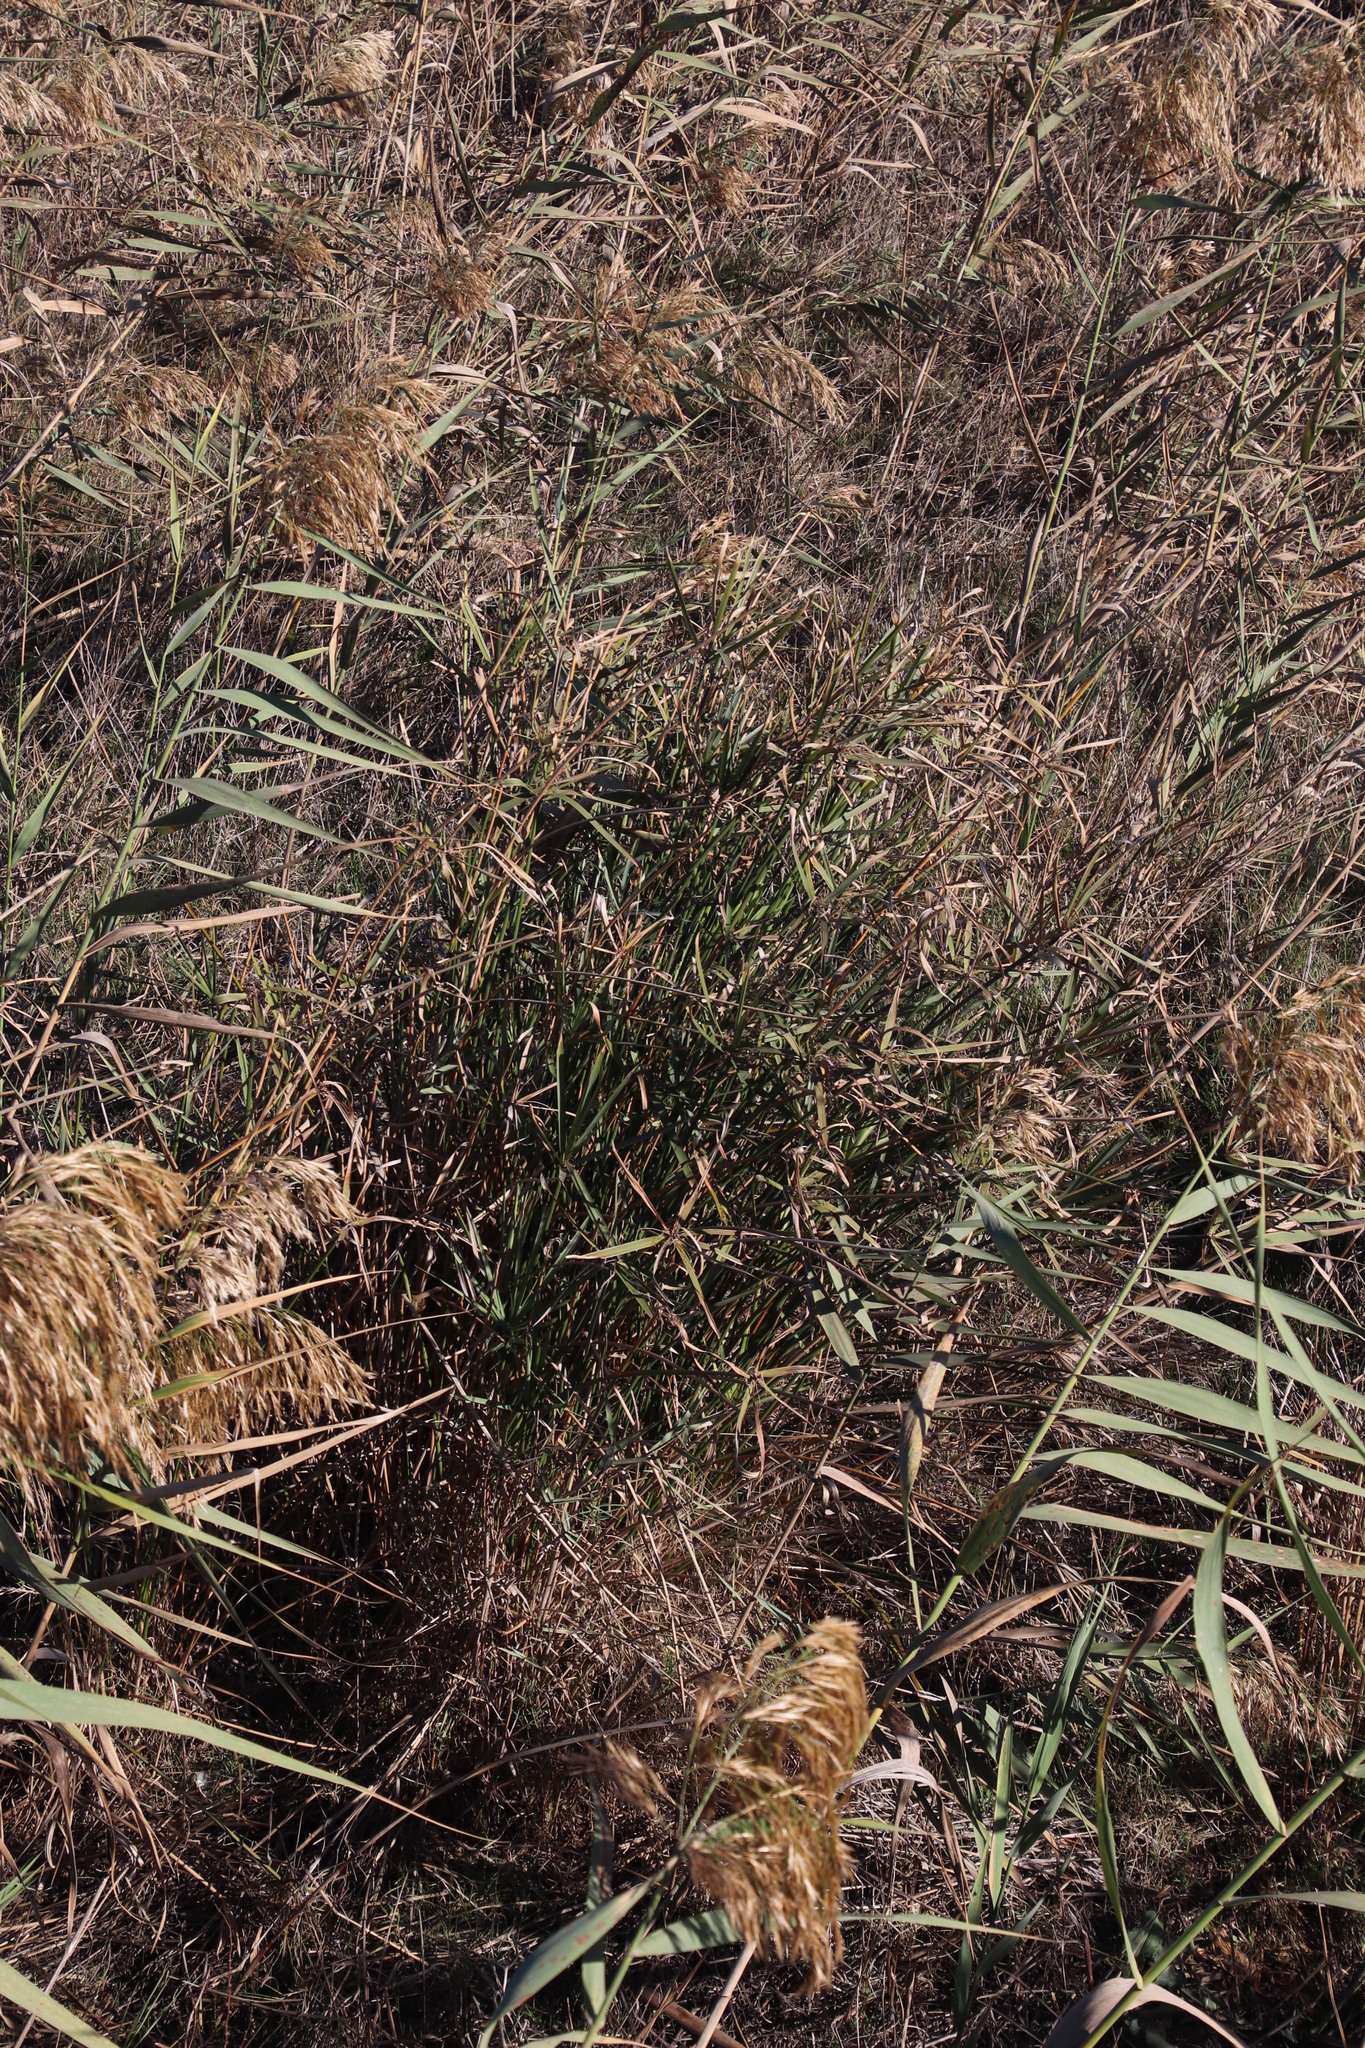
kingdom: Plantae
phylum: Tracheophyta
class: Liliopsida
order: Poales
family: Cyperaceae
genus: Cyperus
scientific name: Cyperus textilis
